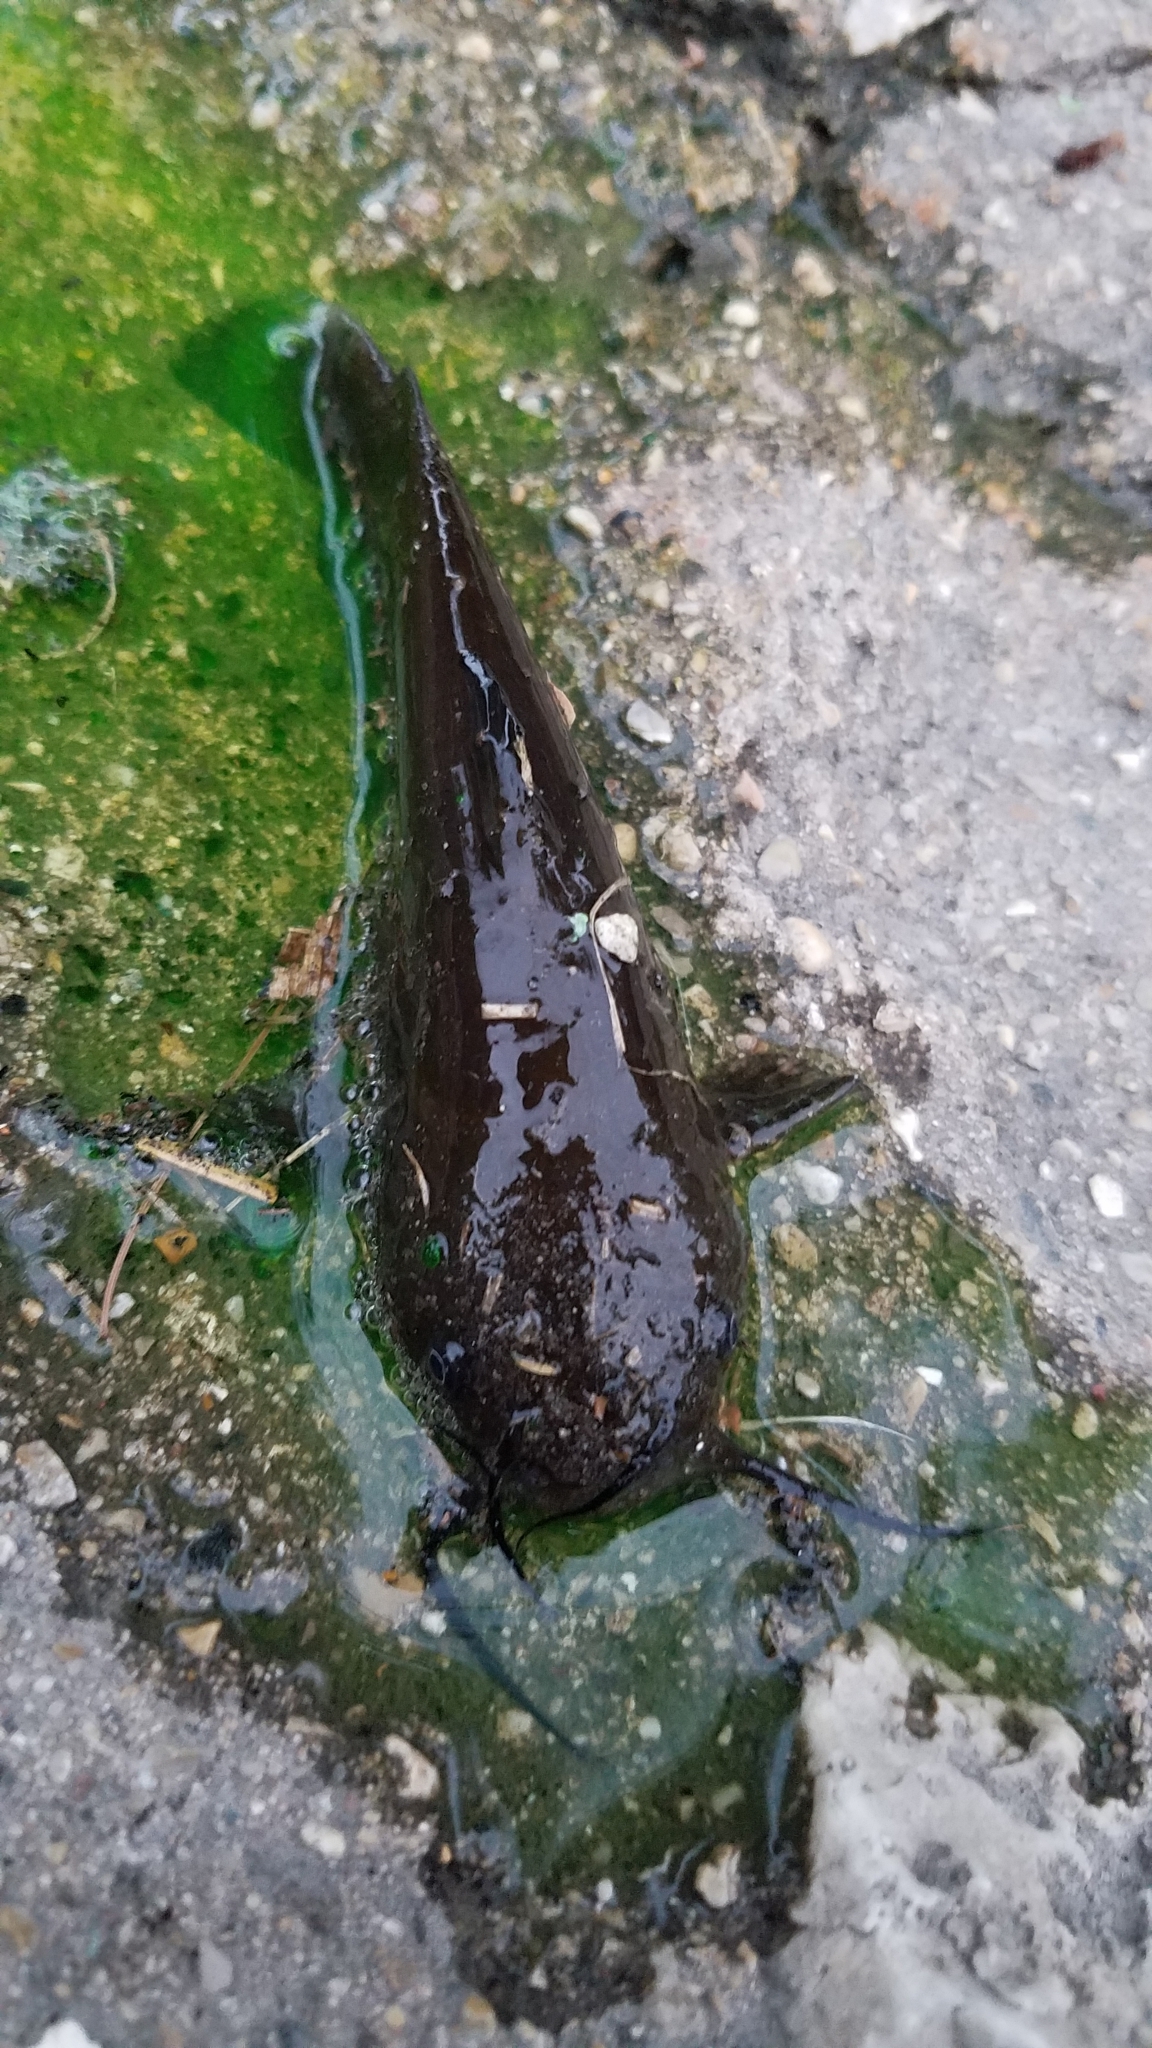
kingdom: Animalia
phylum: Chordata
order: Siluriformes
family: Ictaluridae
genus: Ameiurus
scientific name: Ameiurus natalis
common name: Yellow bullhead
